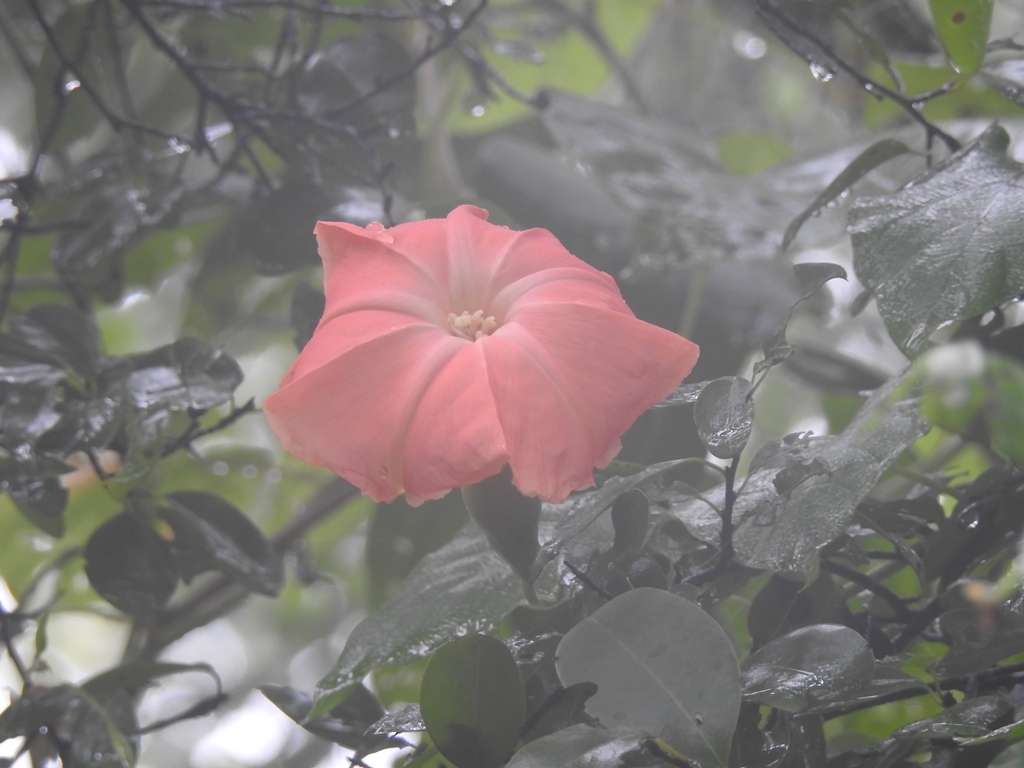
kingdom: Plantae
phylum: Tracheophyta
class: Magnoliopsida
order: Solanales
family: Convolvulaceae
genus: Operculina
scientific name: Operculina pteripes
